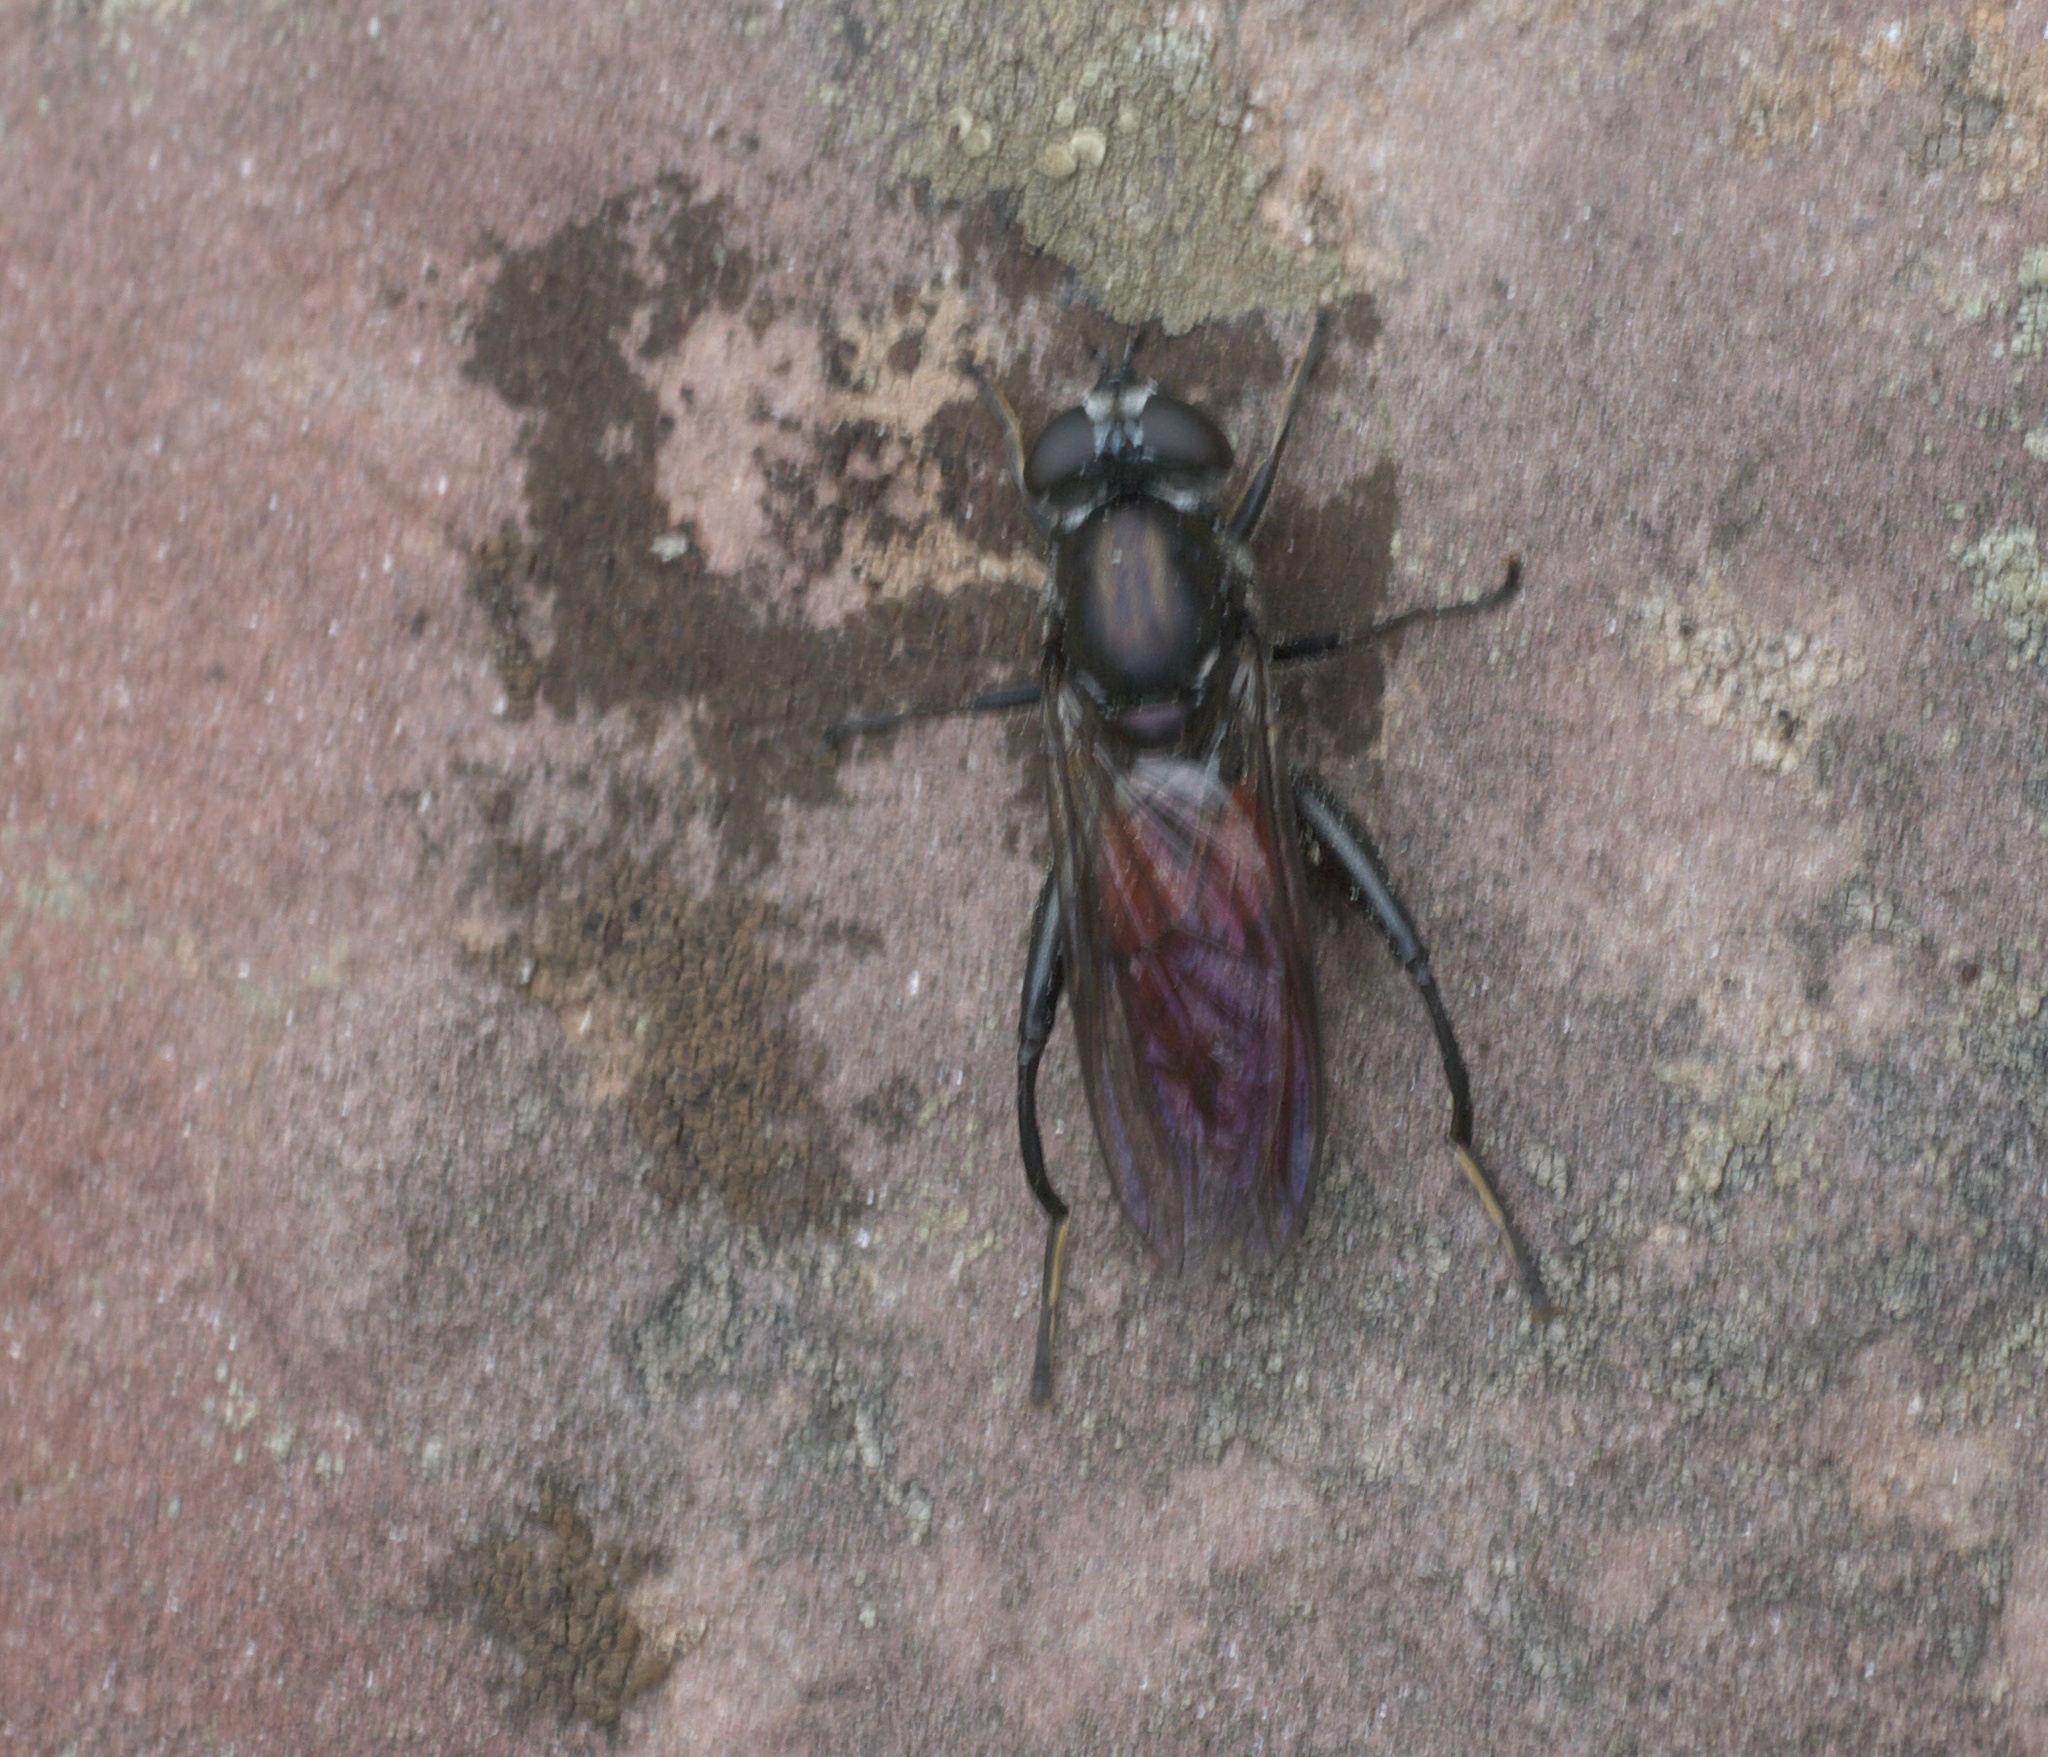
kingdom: Animalia
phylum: Arthropoda
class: Insecta
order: Diptera
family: Syrphidae
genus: Chalcosyrphus
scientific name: Chalcosyrphus piger
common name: Short-haired leafwalker
